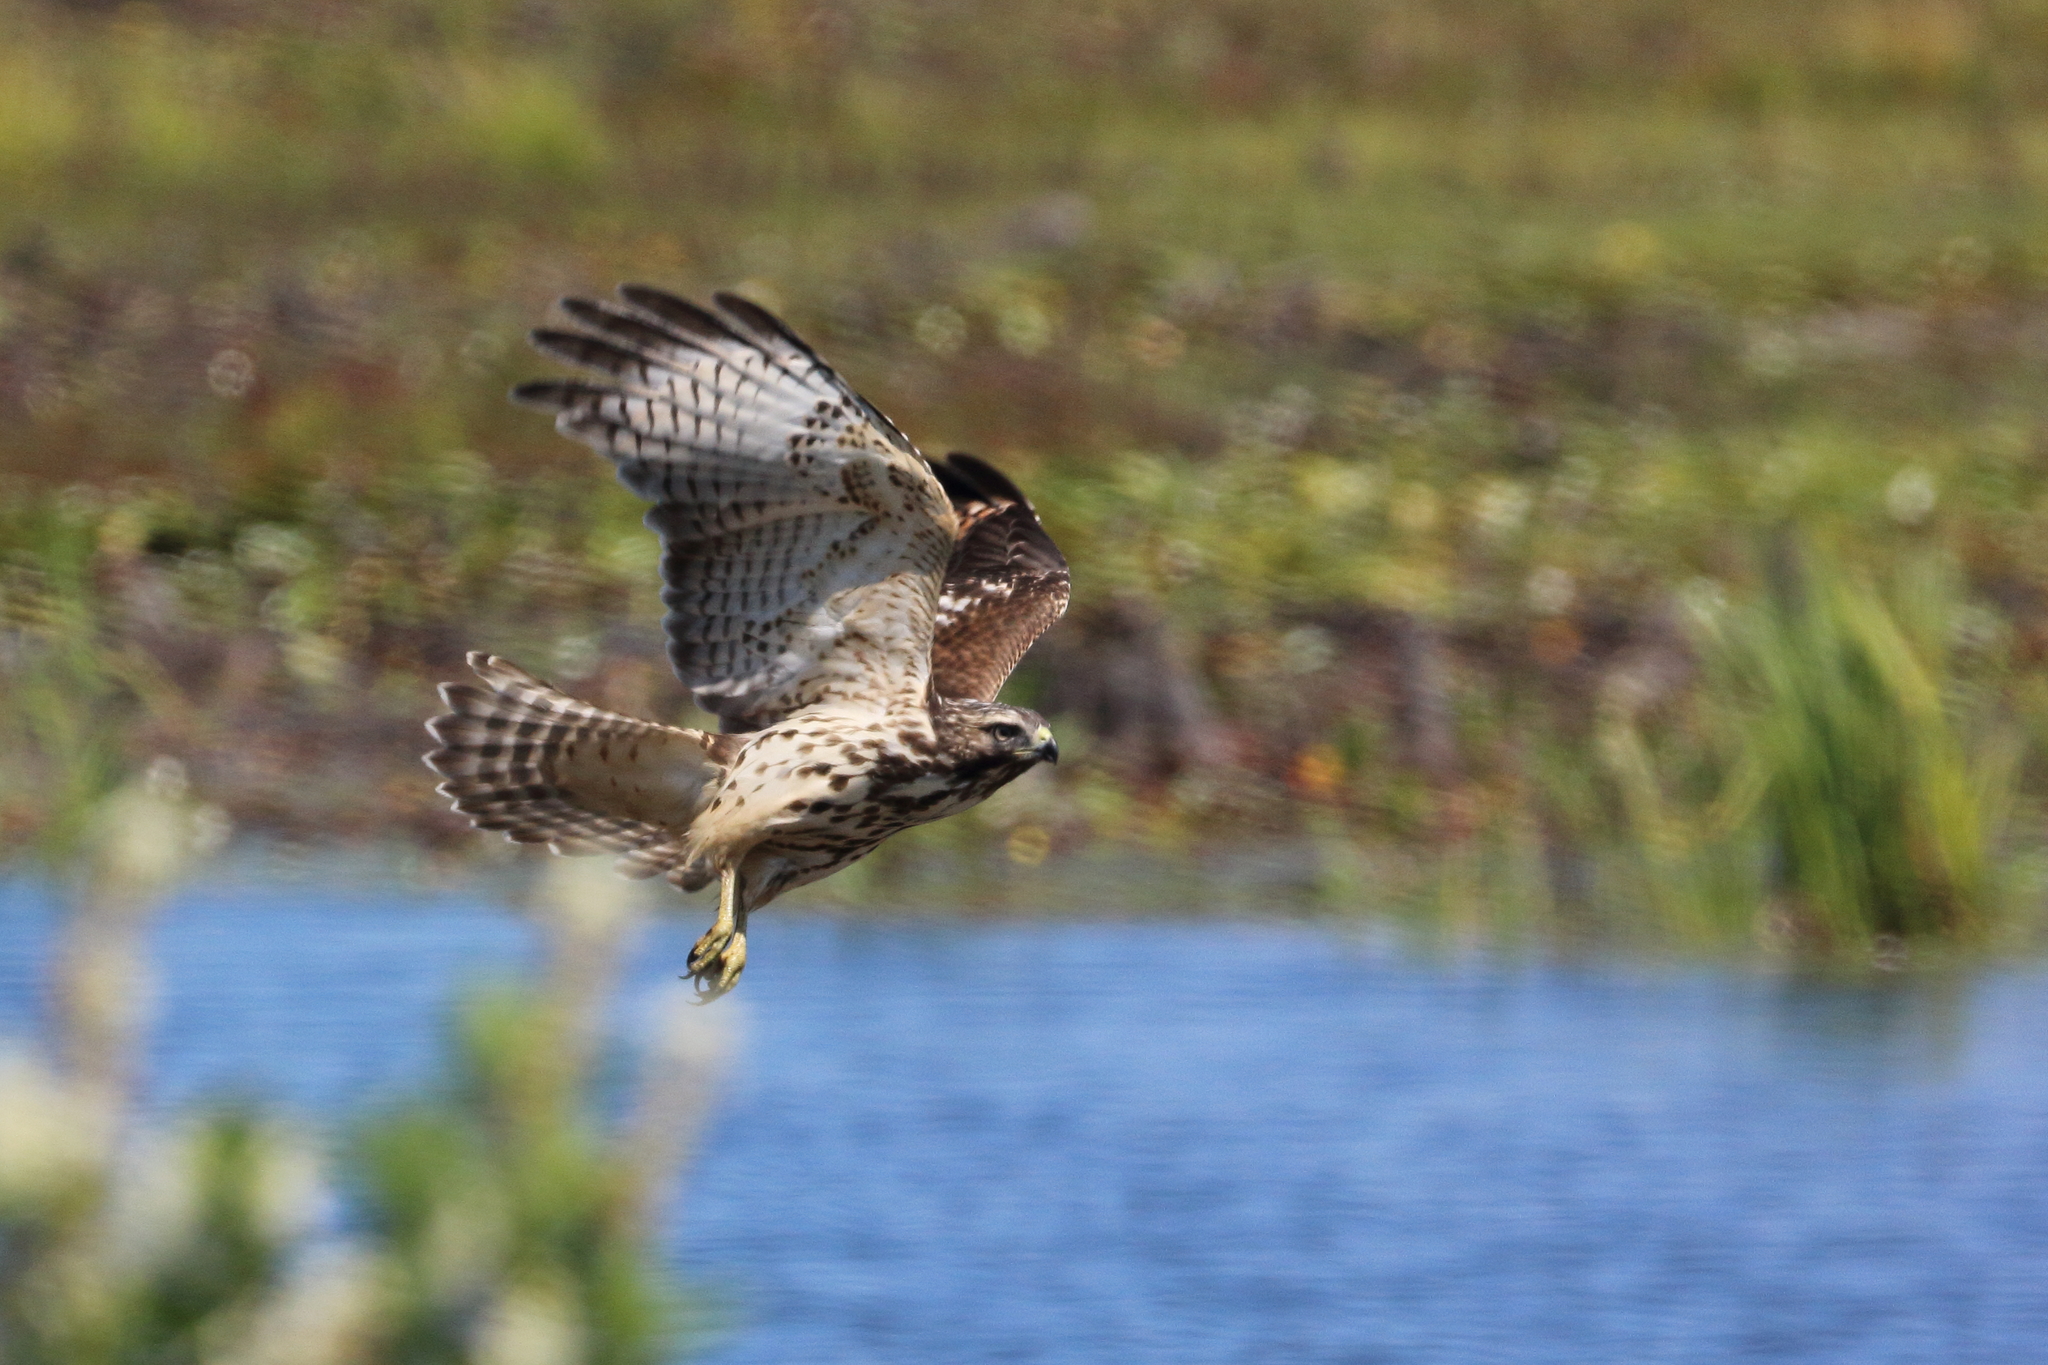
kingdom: Animalia
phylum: Chordata
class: Aves
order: Accipitriformes
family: Accipitridae
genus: Buteo
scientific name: Buteo lineatus
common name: Red-shouldered hawk
